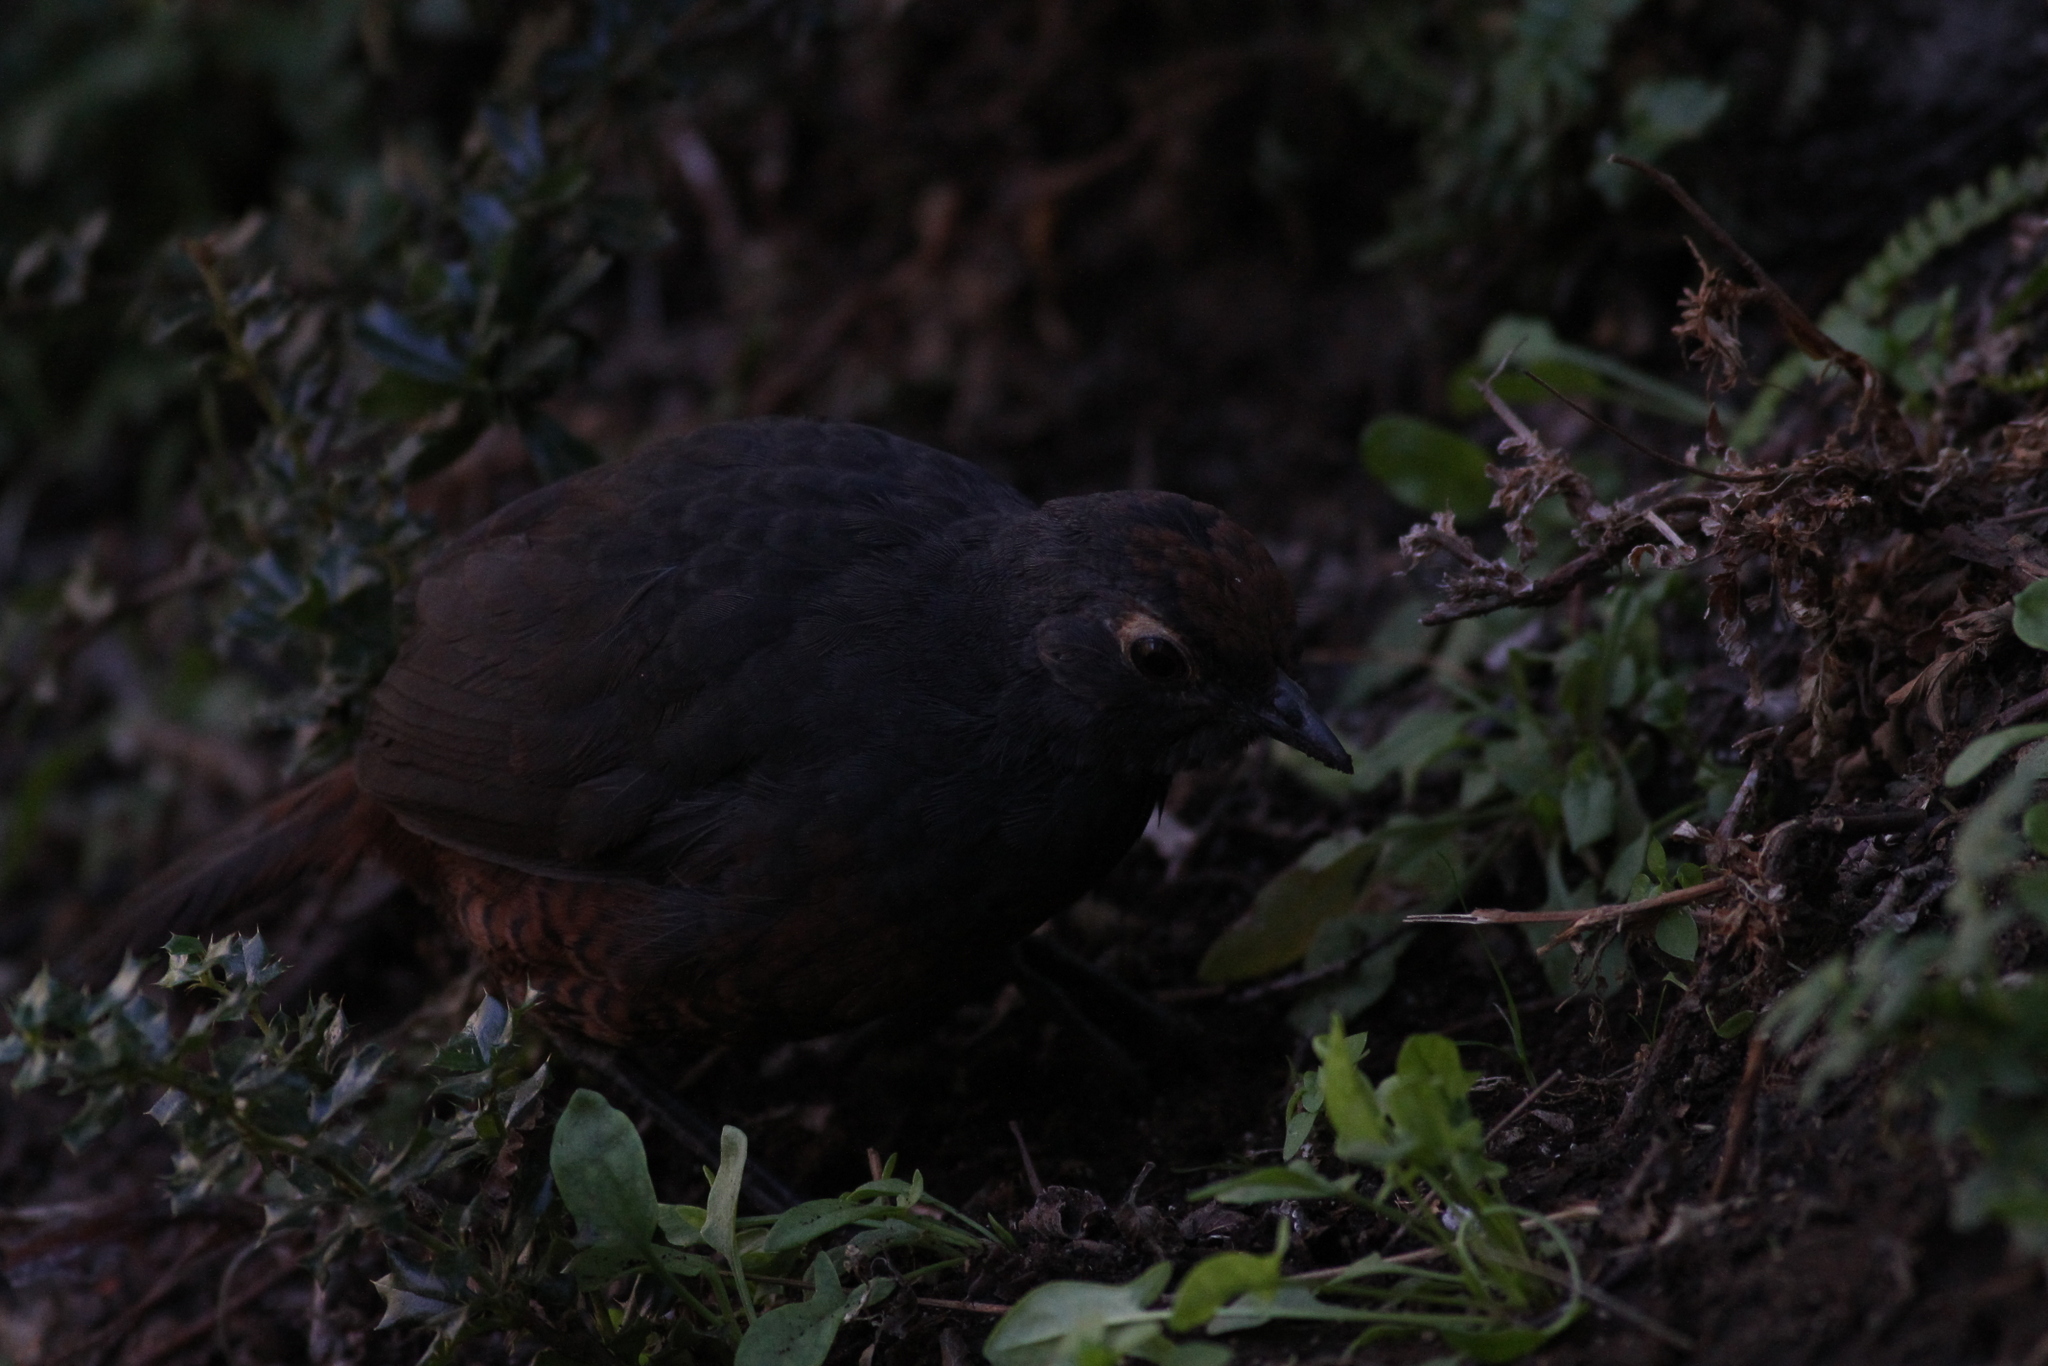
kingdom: Animalia
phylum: Chordata
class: Aves
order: Passeriformes
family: Rhinocryptidae
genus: Pteroptochos
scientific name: Pteroptochos tarnii
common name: Black-throated huet-huet
